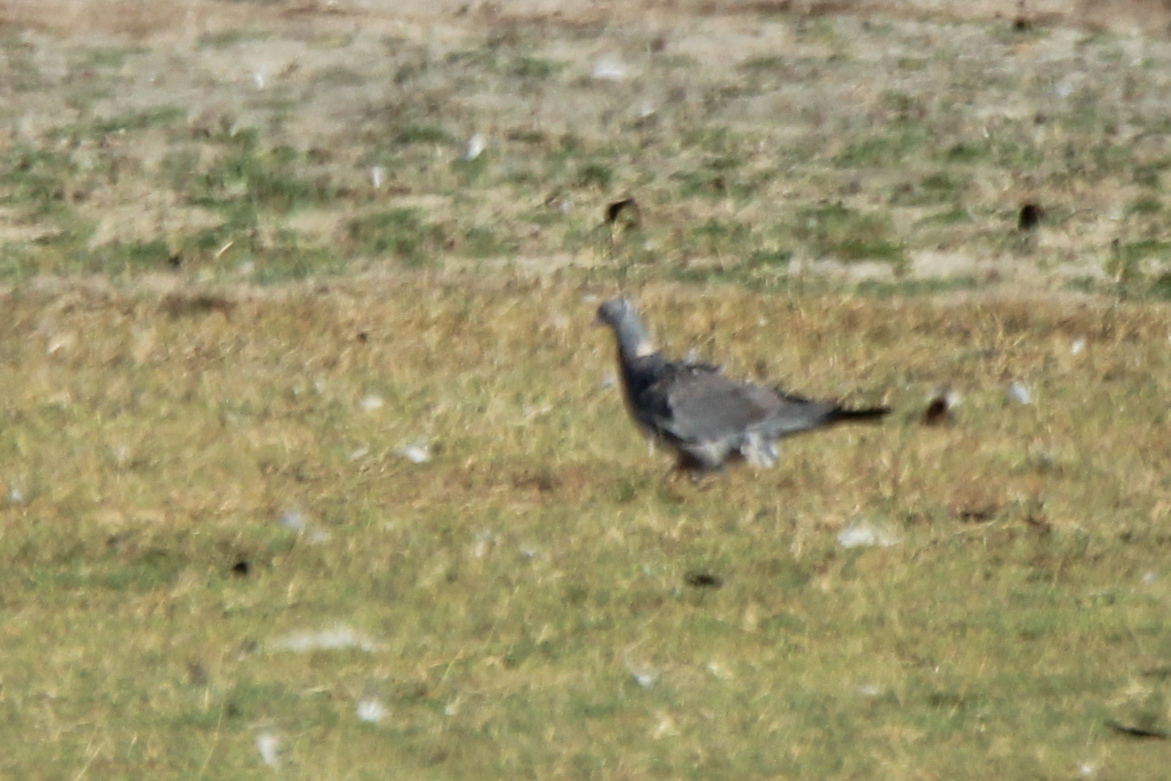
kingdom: Animalia
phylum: Chordata
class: Aves
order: Columbiformes
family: Columbidae
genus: Columba
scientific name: Columba palumbus
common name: Common wood pigeon
